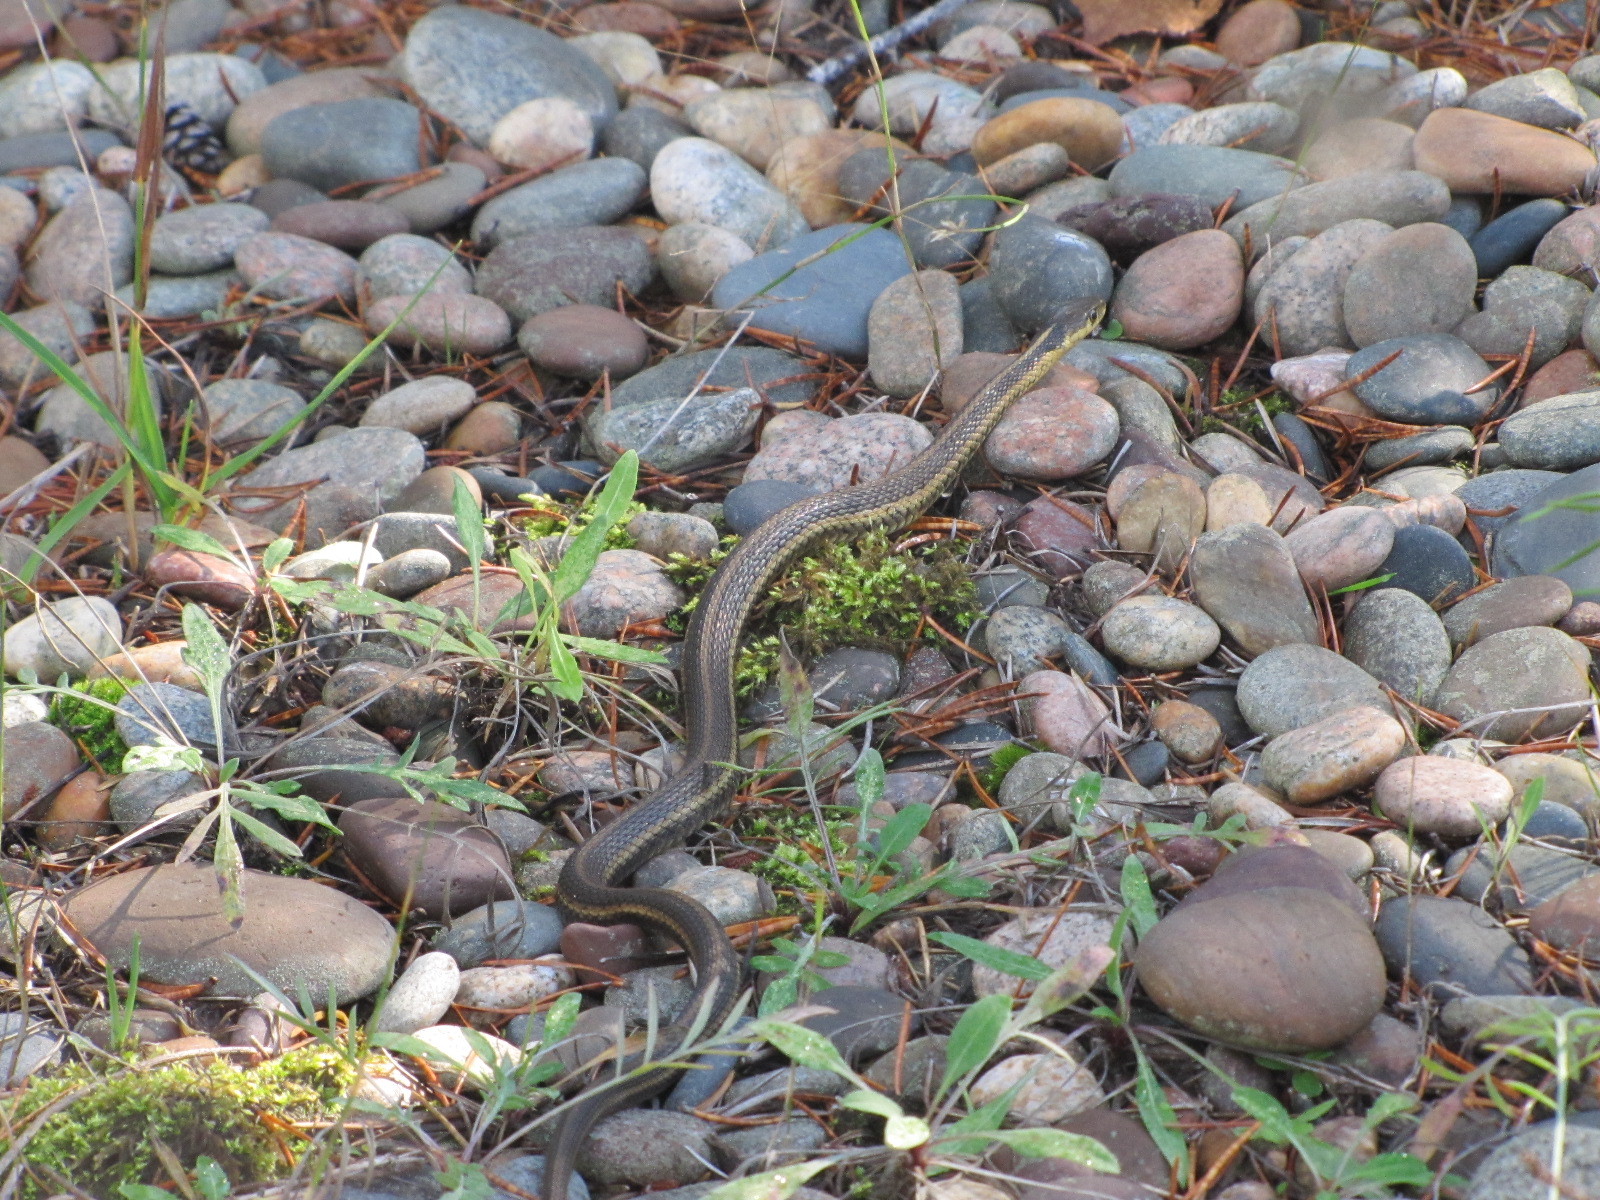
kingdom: Animalia
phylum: Chordata
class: Squamata
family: Colubridae
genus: Thamnophis
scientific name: Thamnophis sirtalis
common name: Common garter snake
